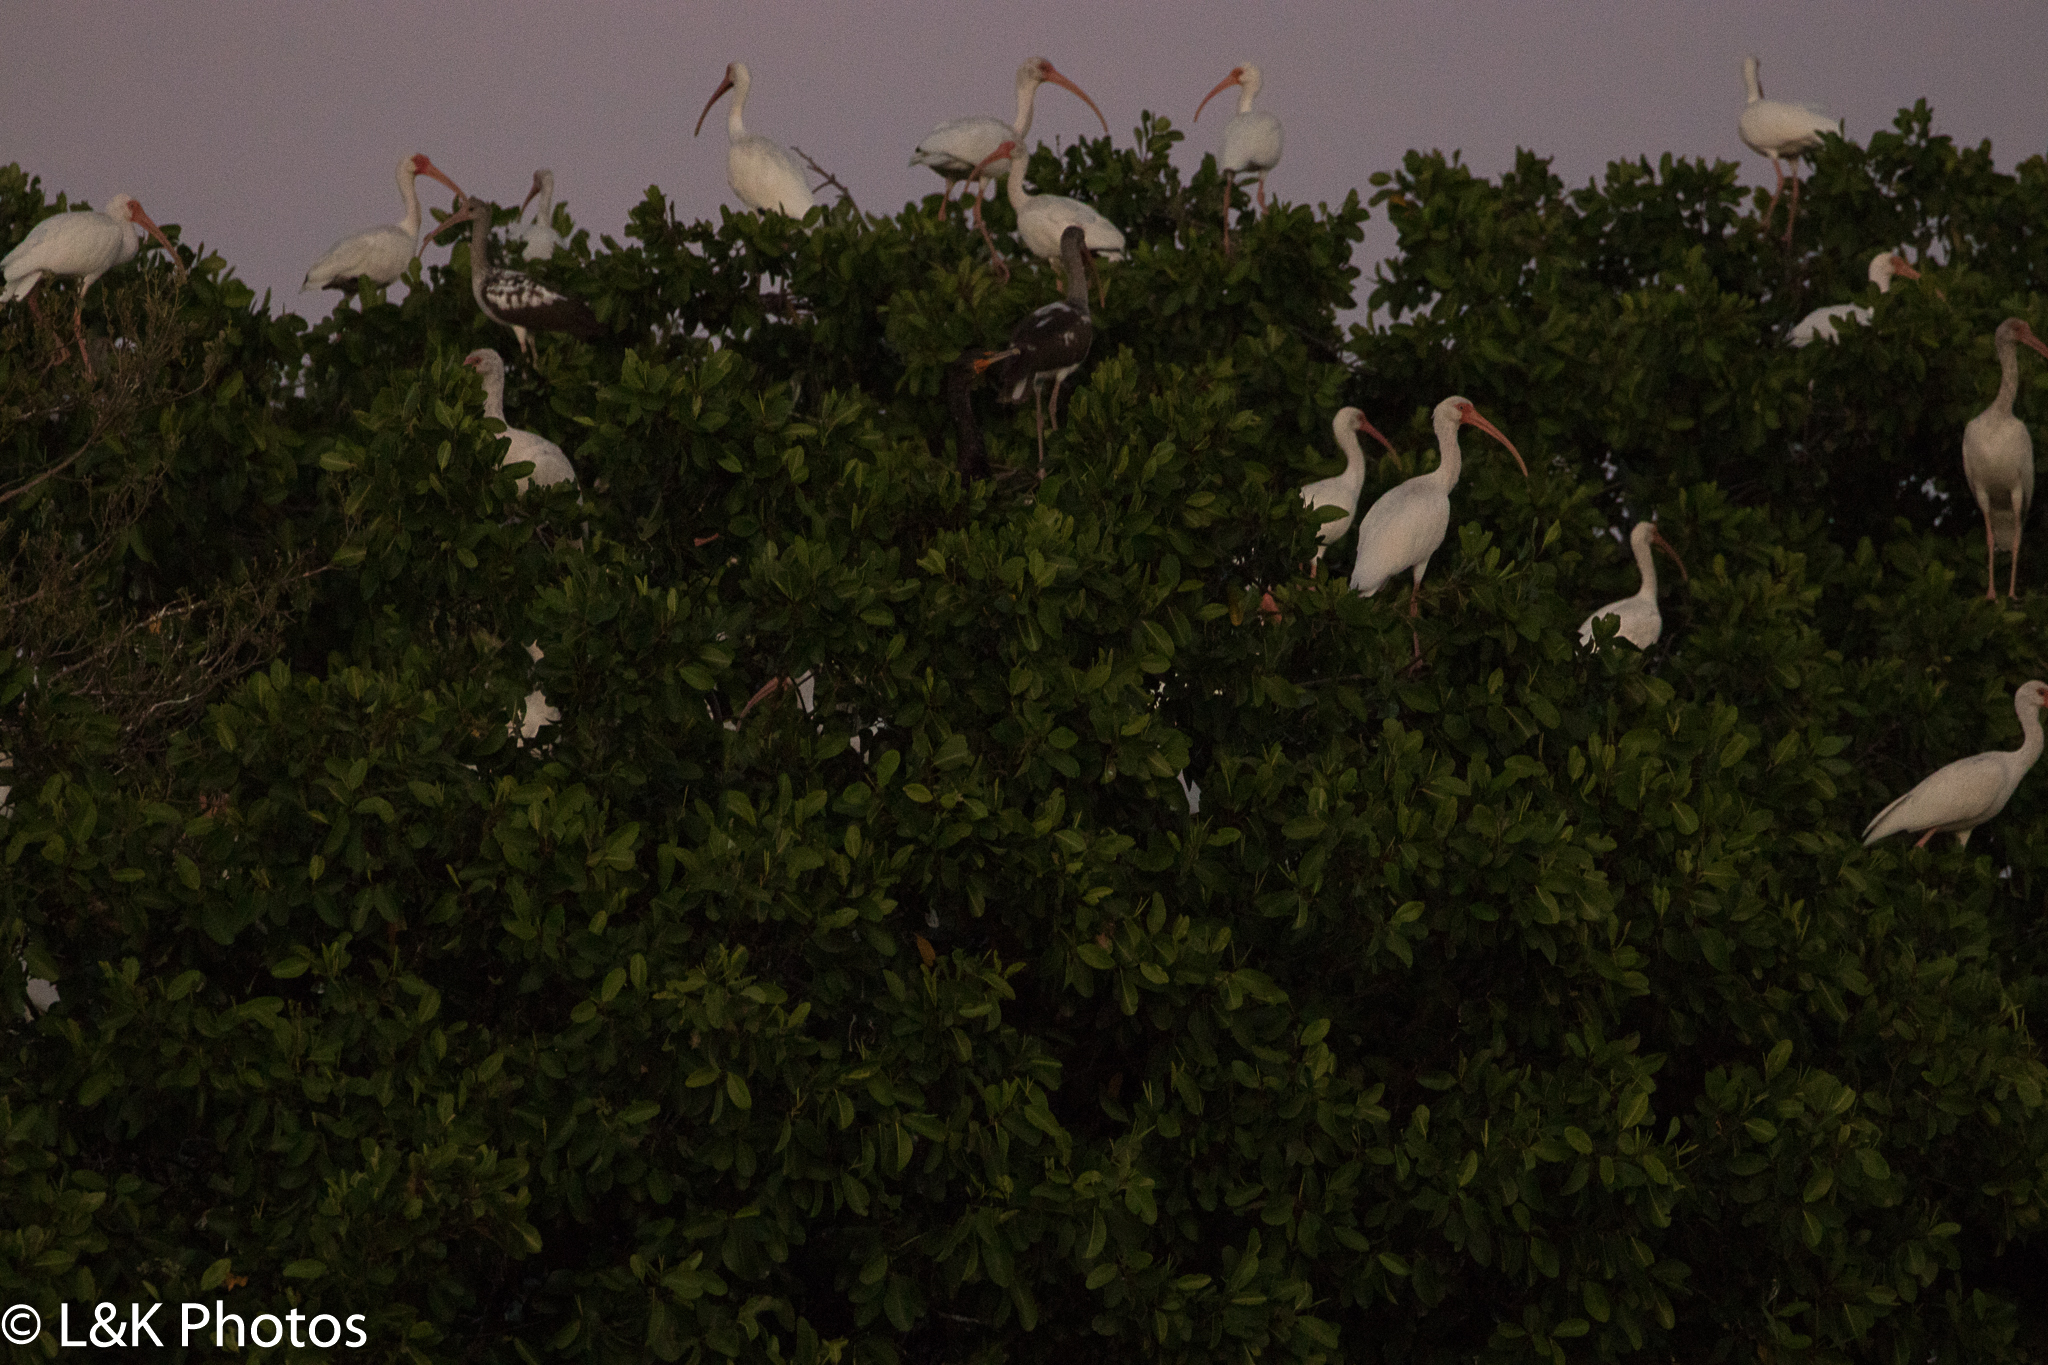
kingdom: Animalia
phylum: Chordata
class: Aves
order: Pelecaniformes
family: Threskiornithidae
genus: Eudocimus
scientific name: Eudocimus albus
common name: White ibis
